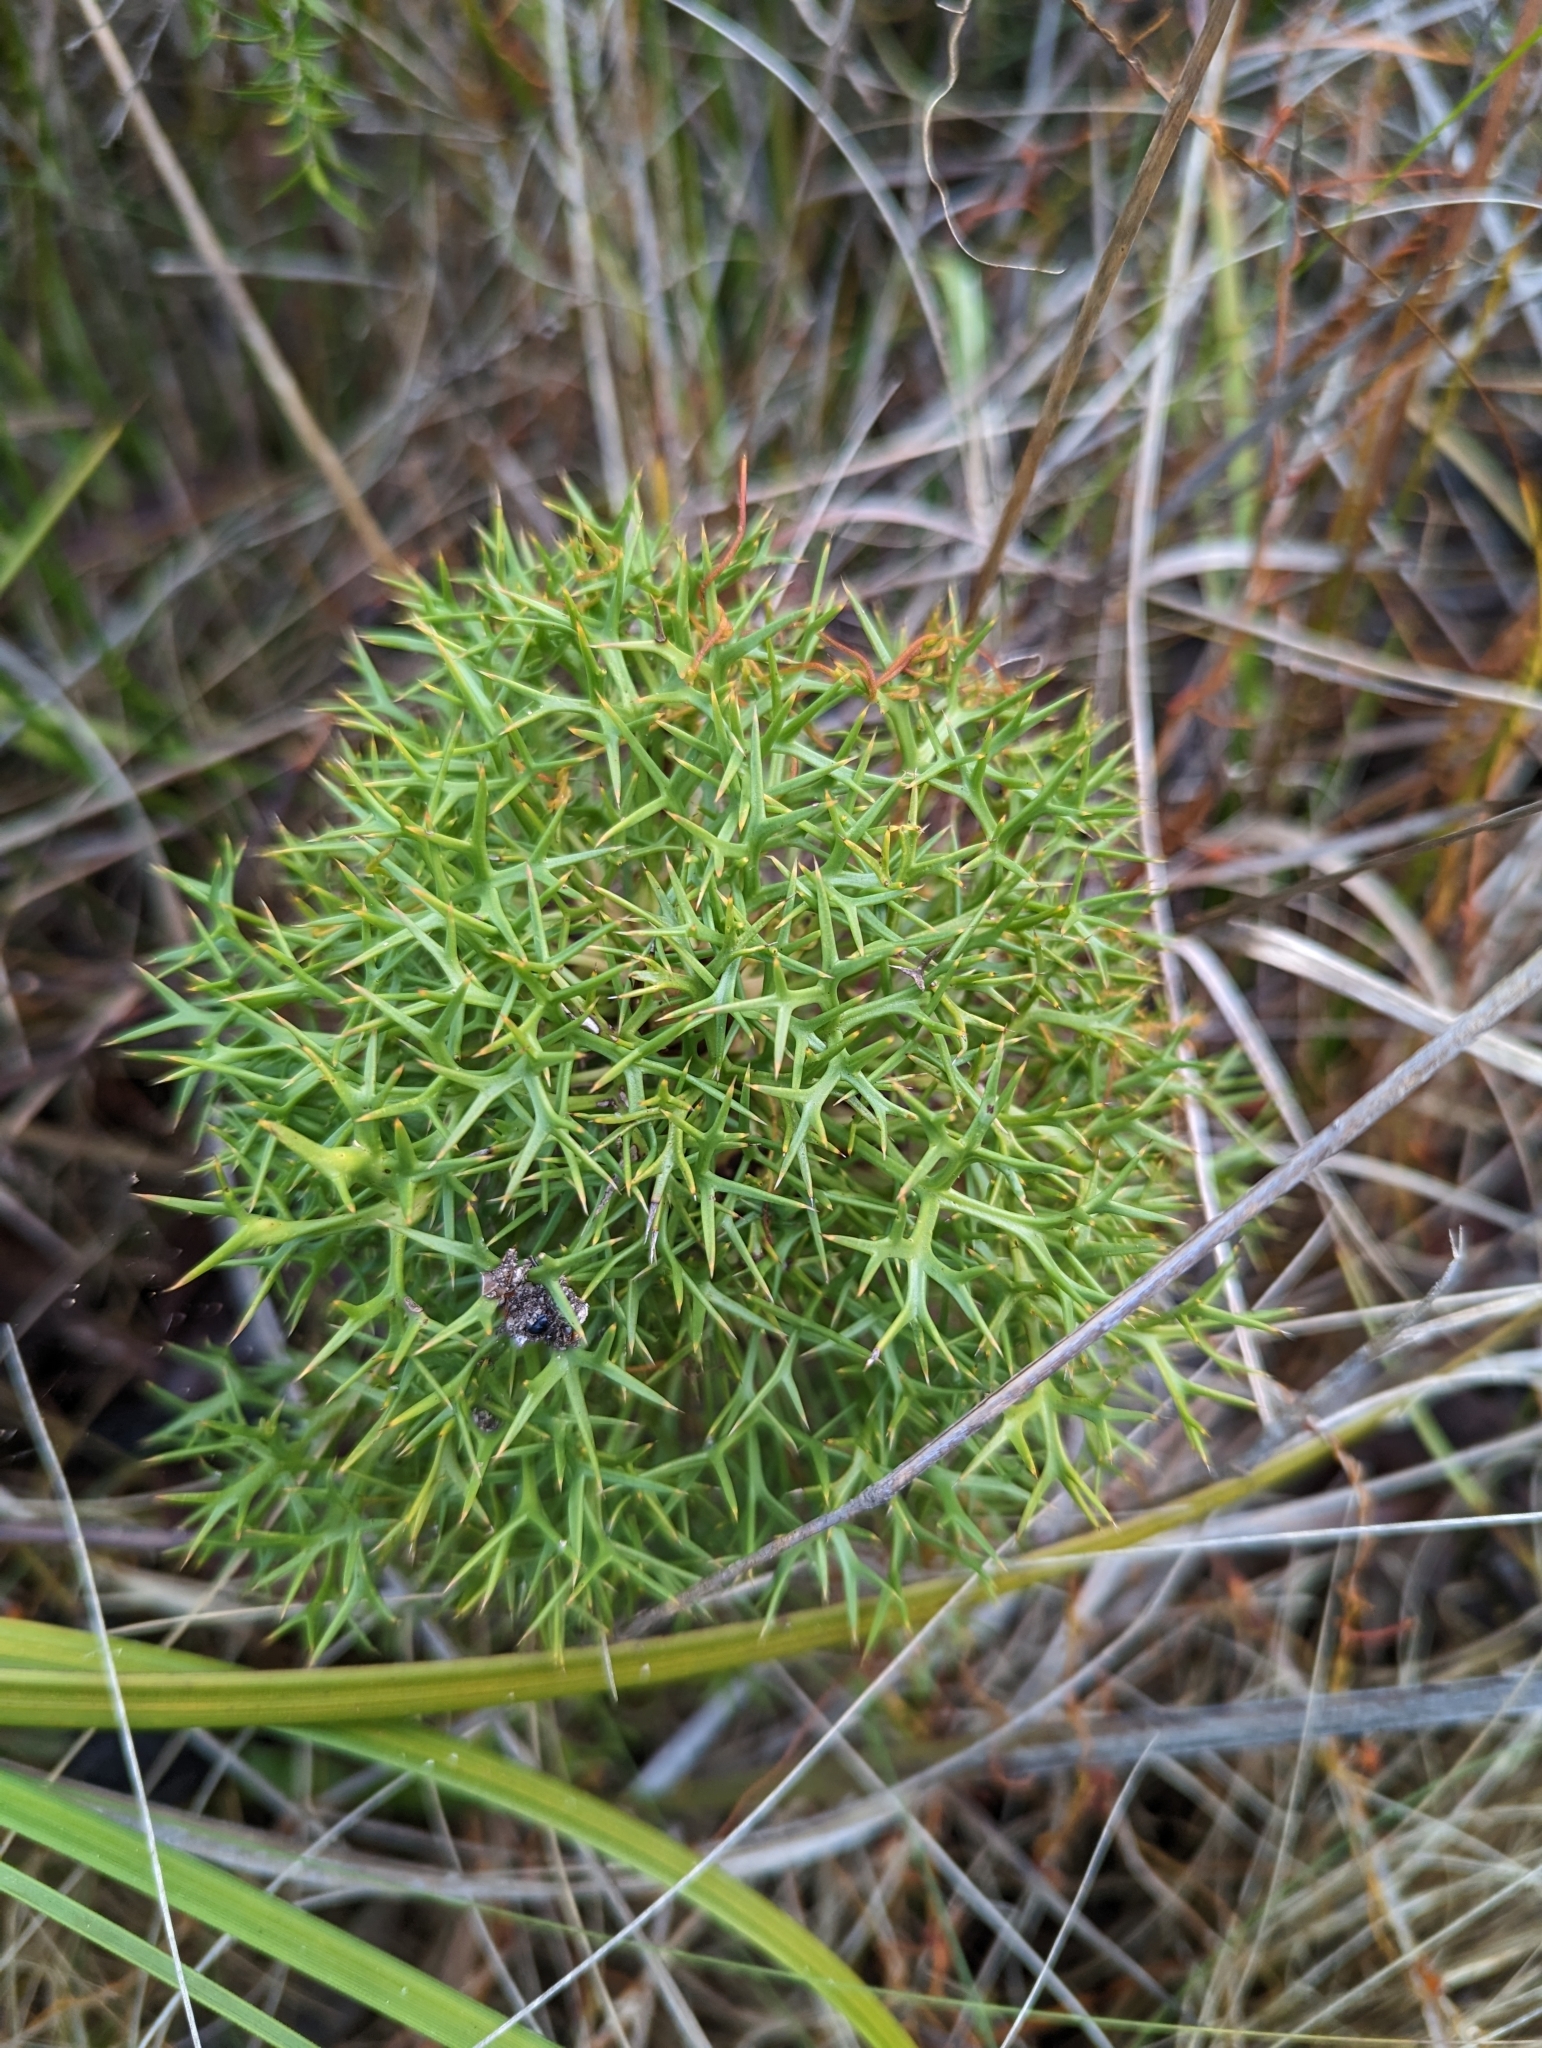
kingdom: Plantae
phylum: Tracheophyta
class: Magnoliopsida
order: Proteales
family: Proteaceae
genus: Isopogon
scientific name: Isopogon ceratophyllus
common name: Horny cone-bush
